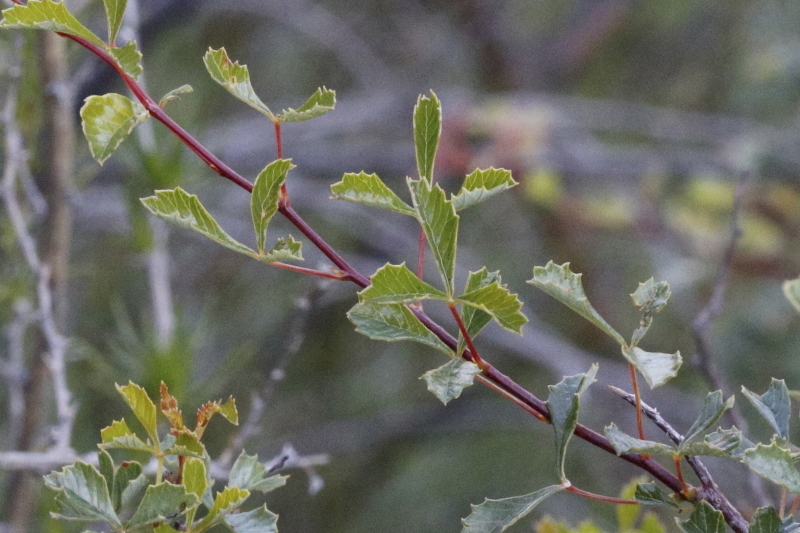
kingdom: Plantae
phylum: Tracheophyta
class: Magnoliopsida
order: Sapindales
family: Anacardiaceae
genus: Searsia
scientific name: Searsia dissecta
